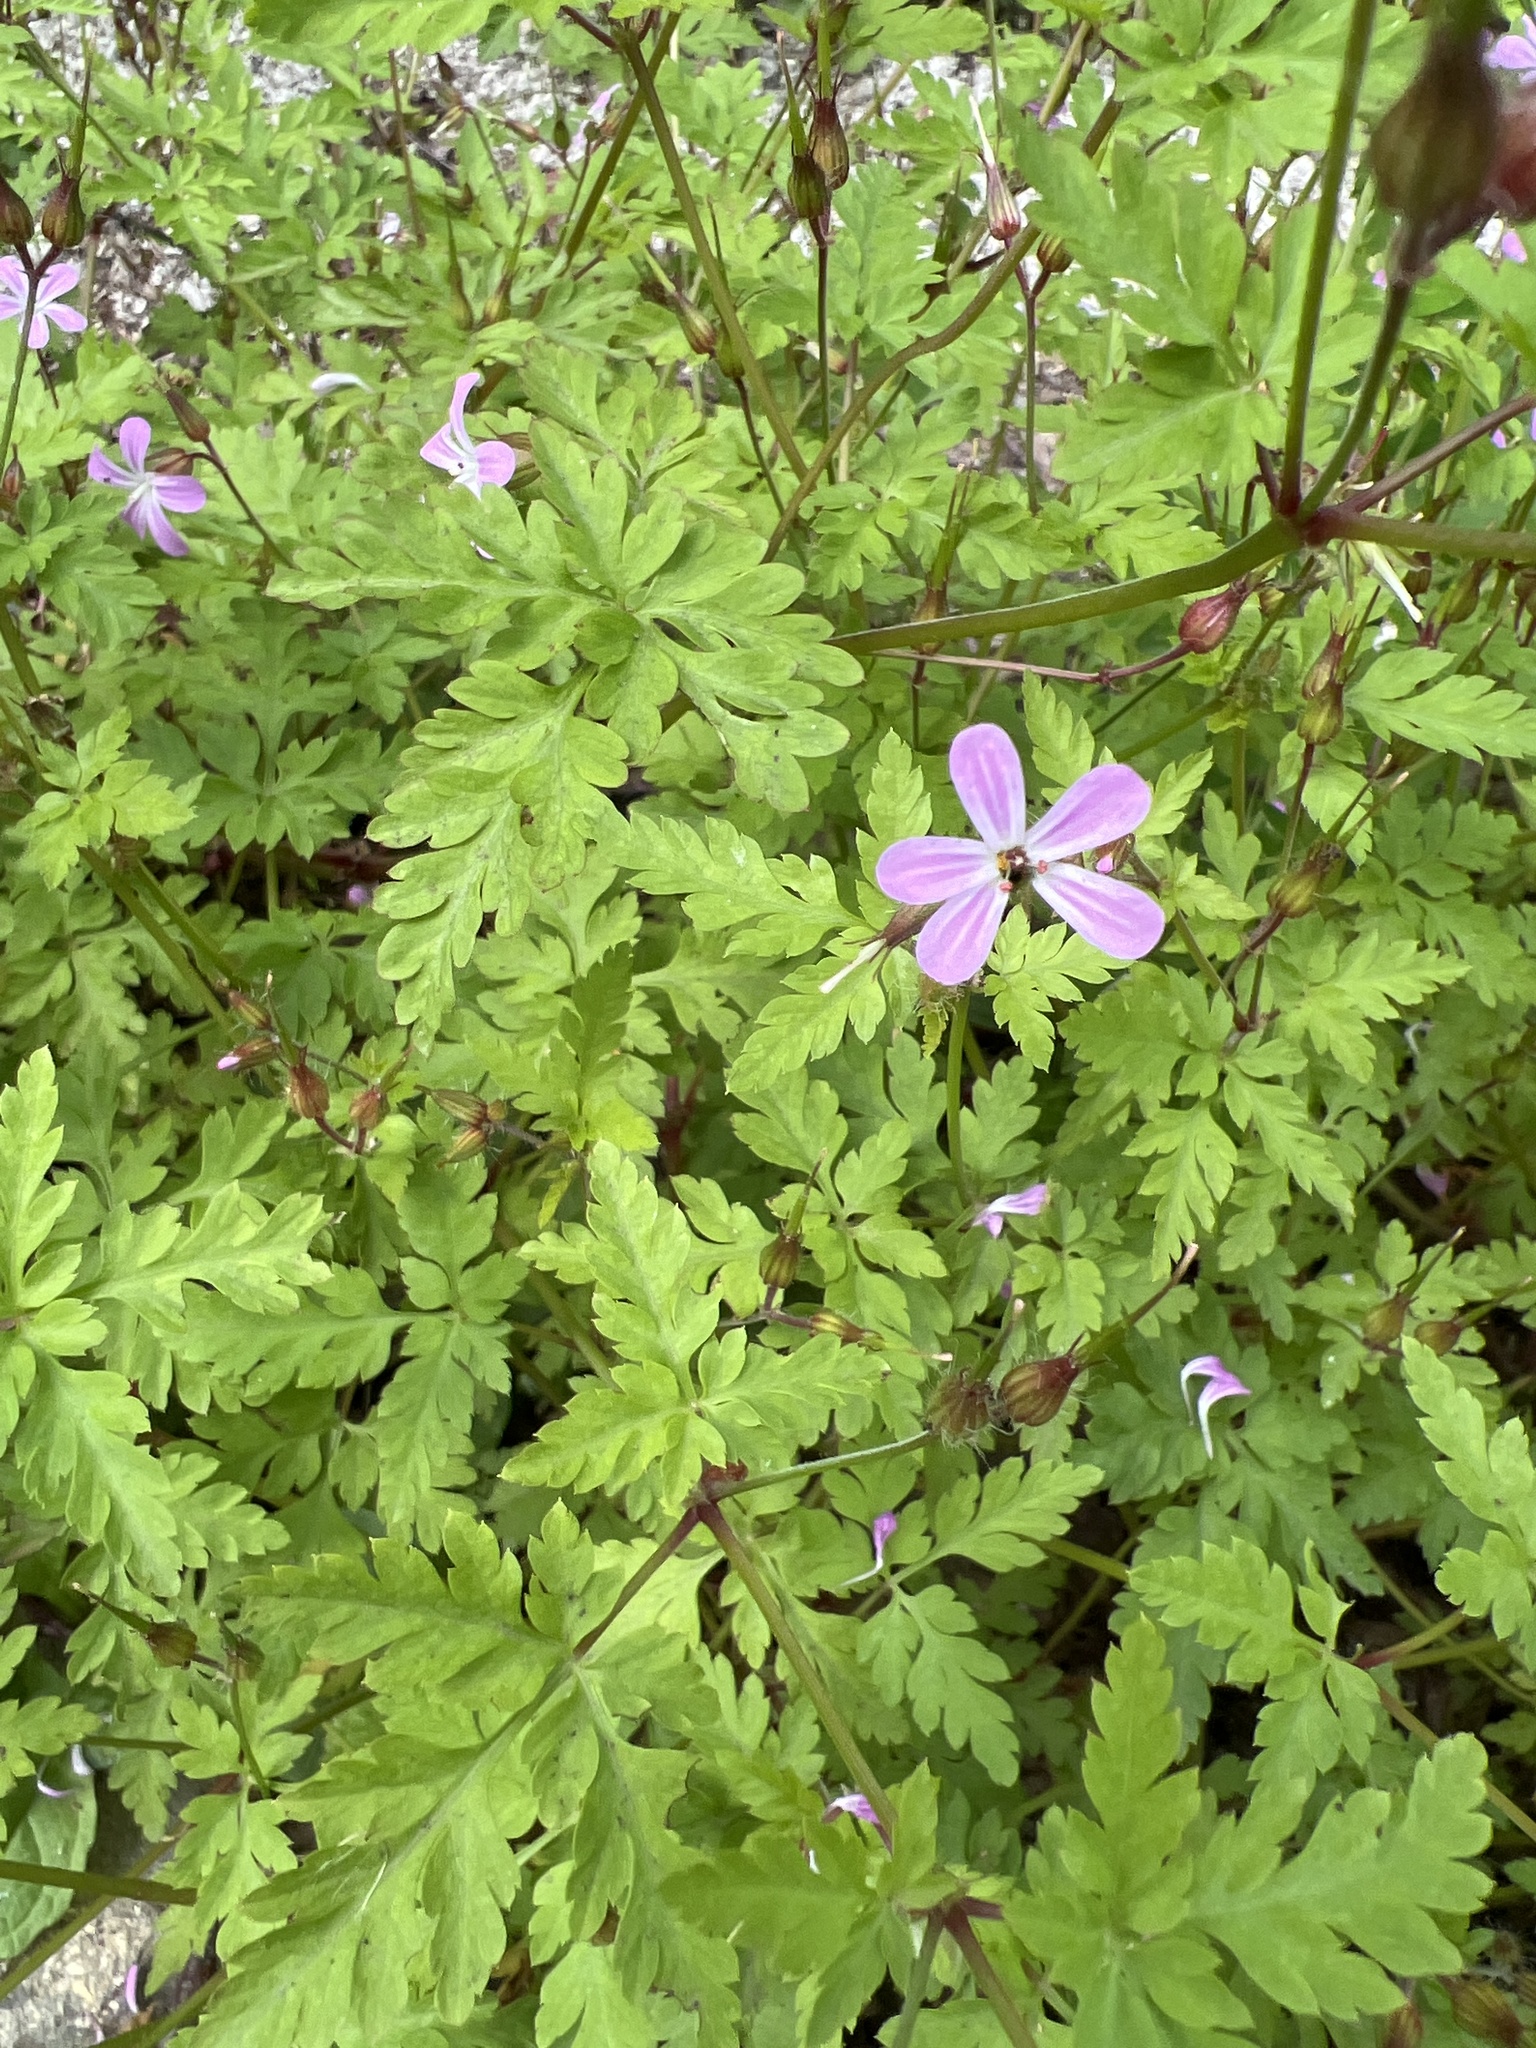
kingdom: Plantae
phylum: Tracheophyta
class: Magnoliopsida
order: Geraniales
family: Geraniaceae
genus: Geranium
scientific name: Geranium robertianum
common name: Herb-robert
